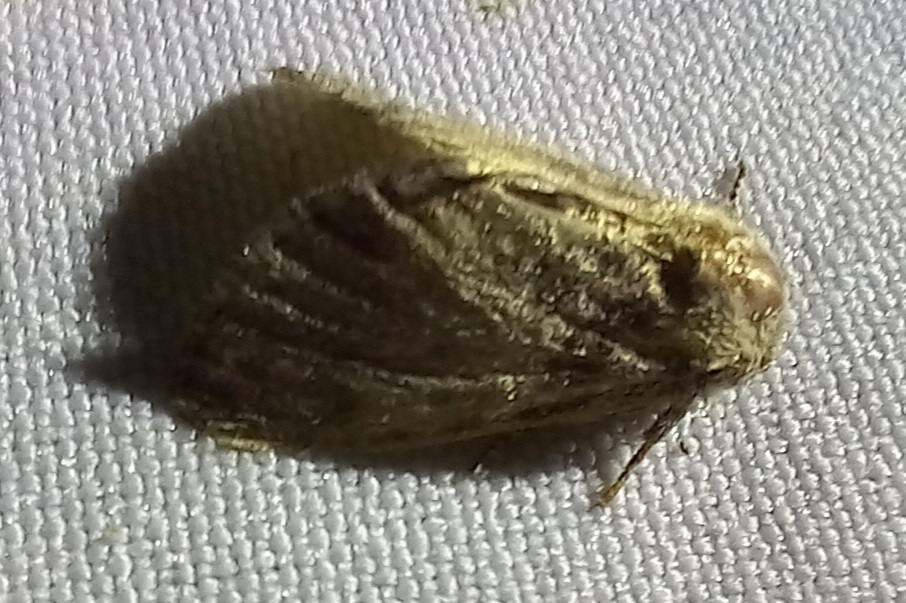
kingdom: Animalia
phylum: Arthropoda
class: Insecta
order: Lepidoptera
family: Noctuidae
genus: Raphia
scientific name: Raphia hybris
